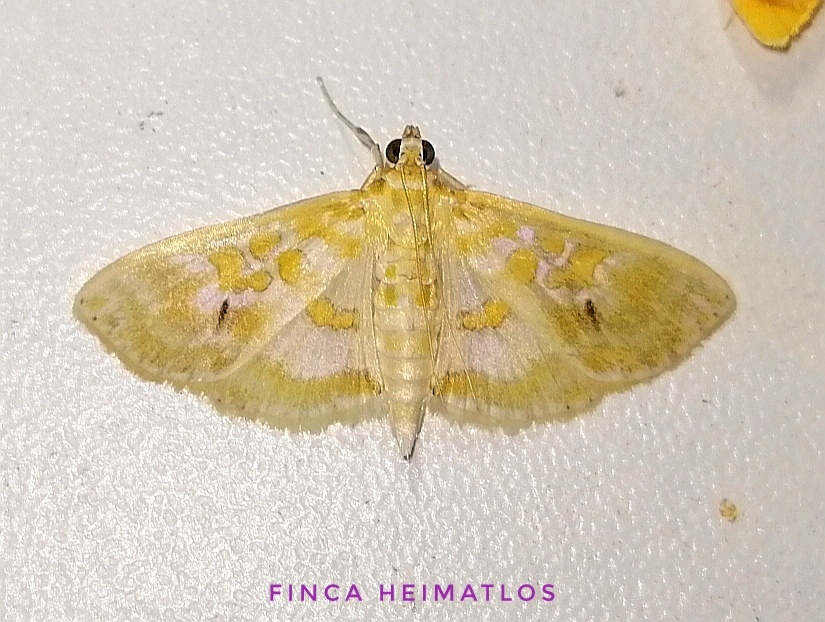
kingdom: Animalia
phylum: Arthropoda
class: Insecta
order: Lepidoptera
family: Crambidae
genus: Leucochroma
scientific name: Leucochroma corope
